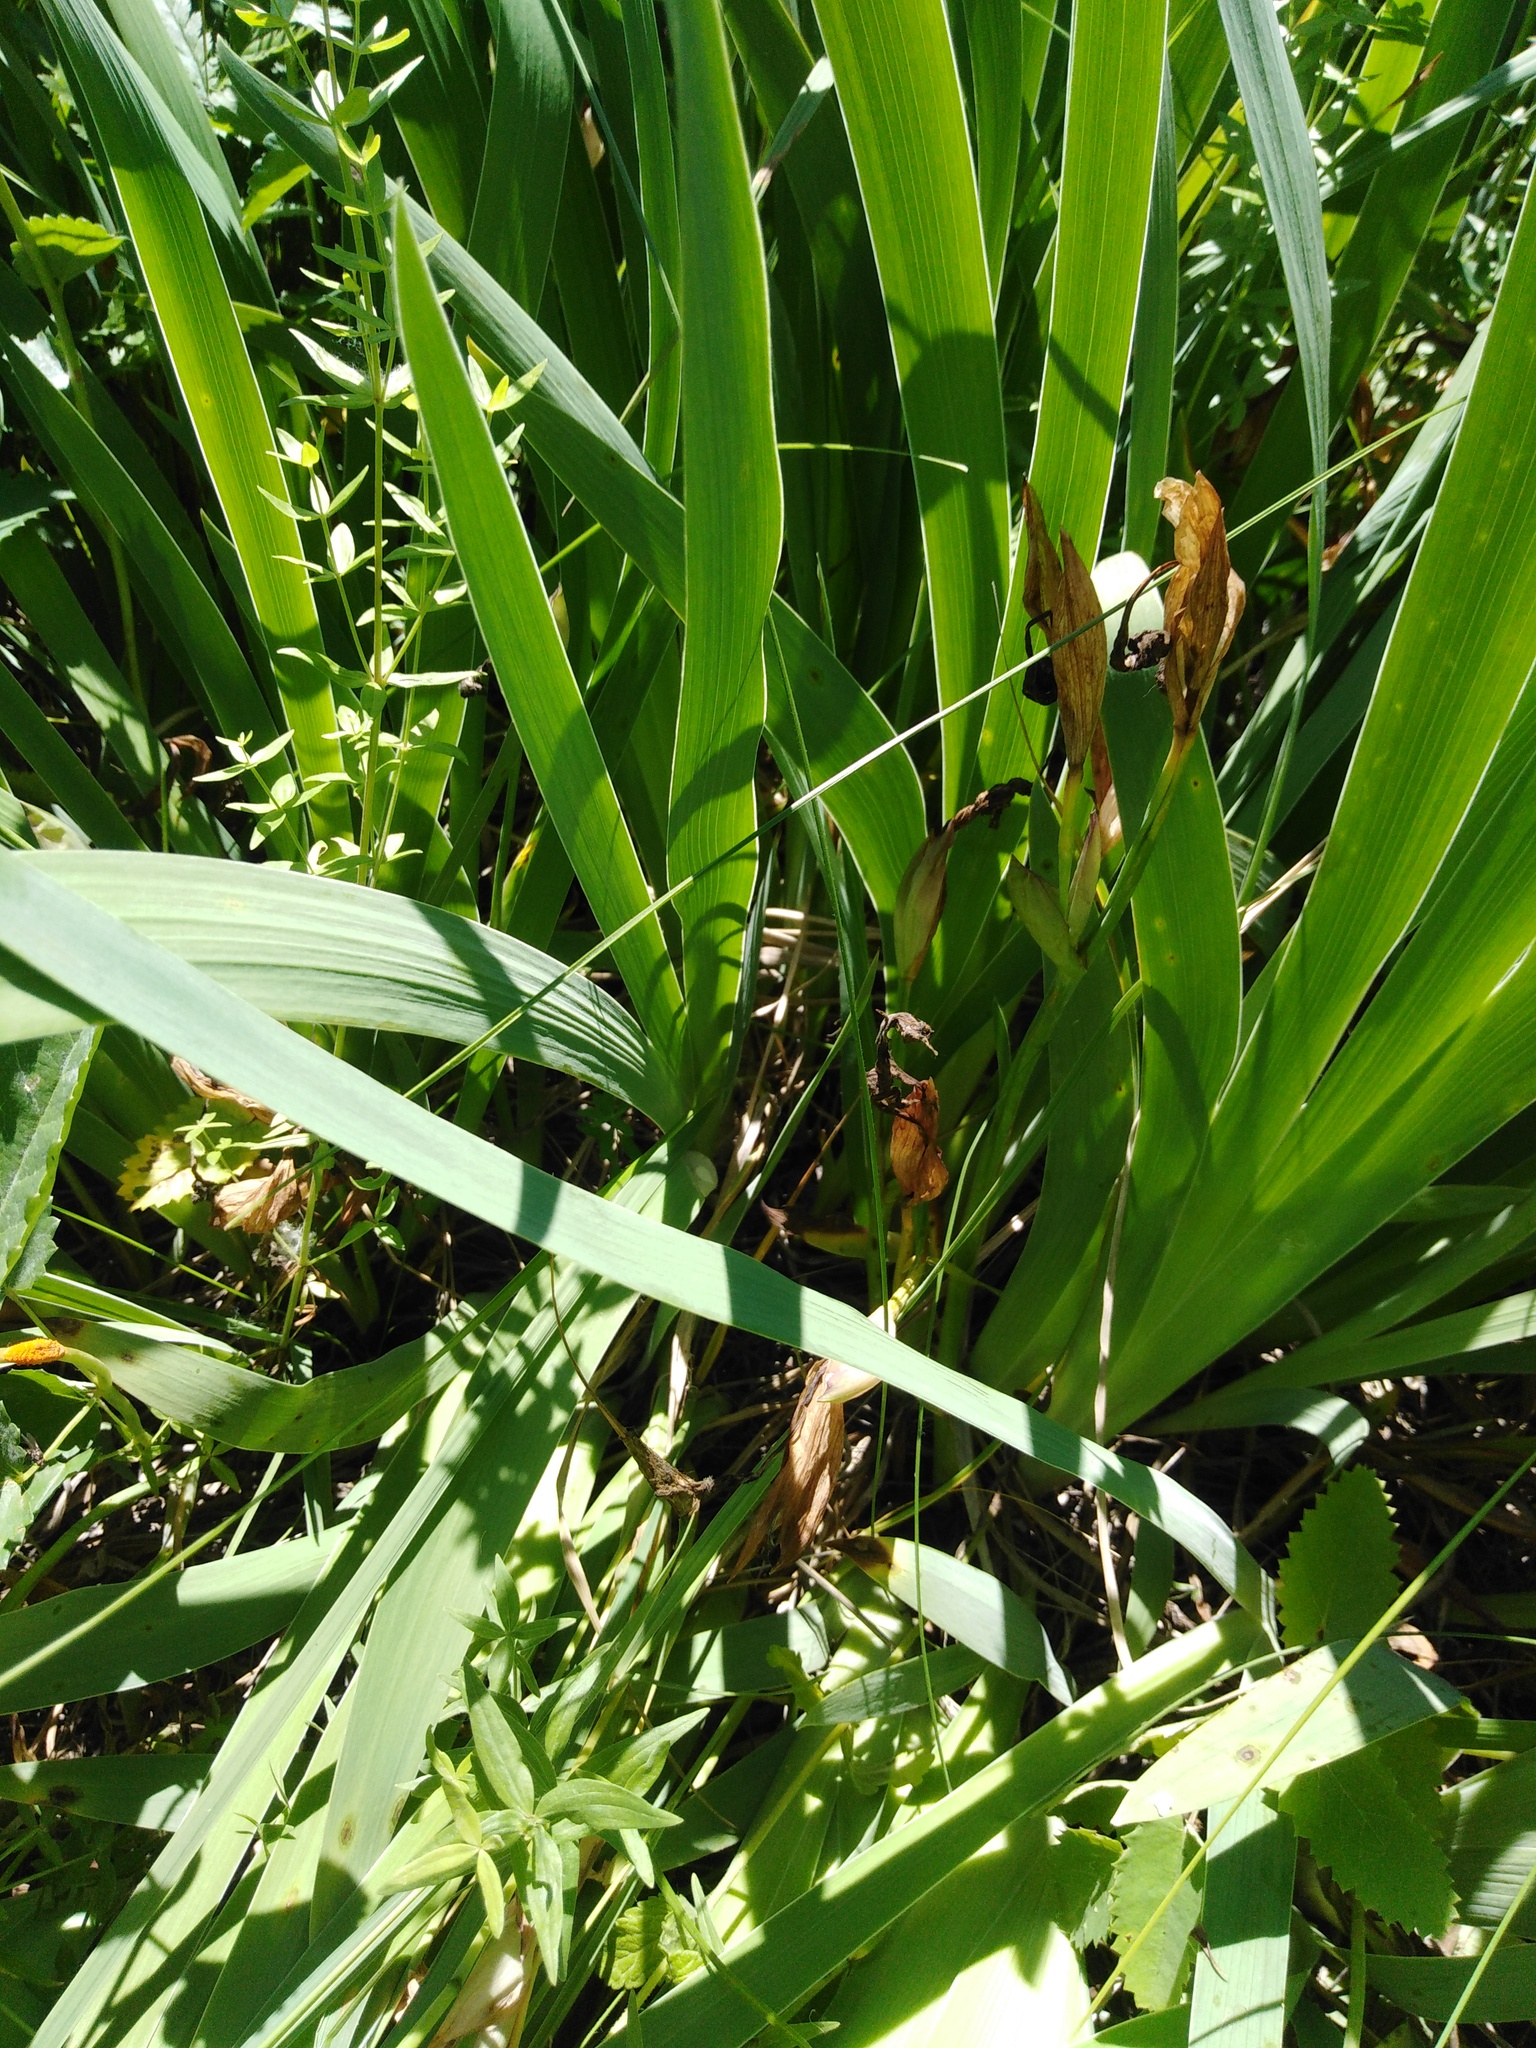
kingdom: Plantae
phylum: Tracheophyta
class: Liliopsida
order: Asparagales
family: Iridaceae
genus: Iris
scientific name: Iris aphylla
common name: Stool iris
